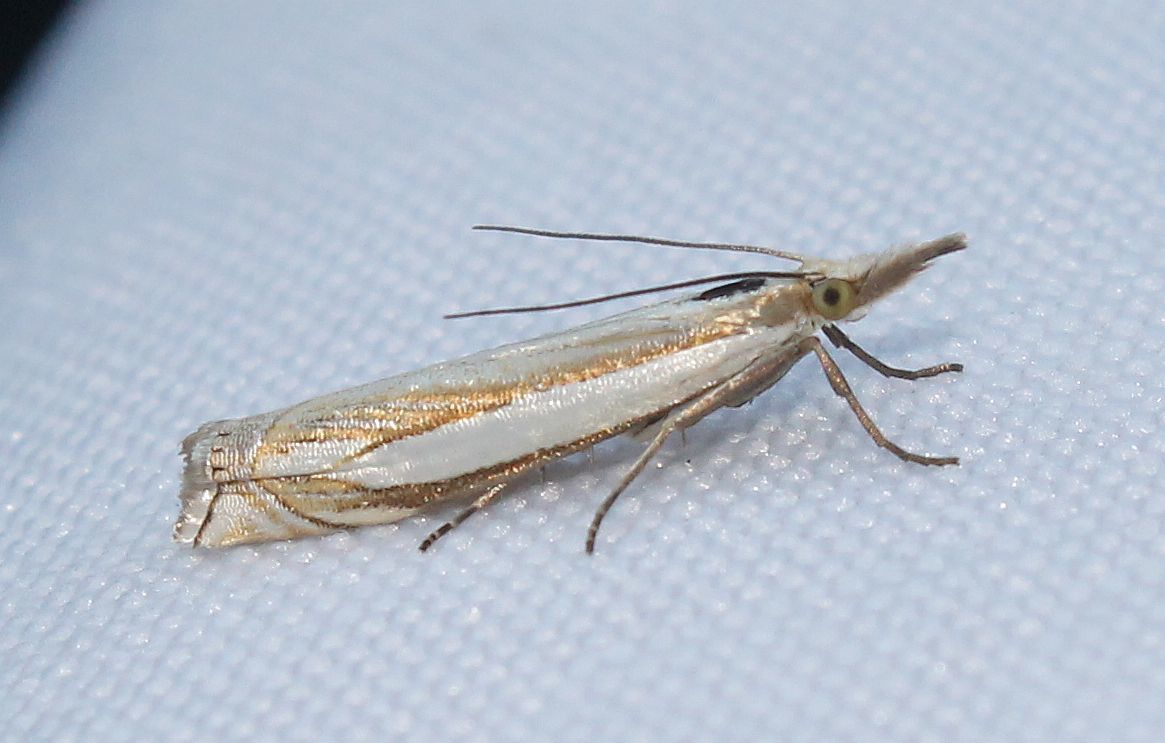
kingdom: Animalia
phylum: Arthropoda
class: Insecta
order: Lepidoptera
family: Crambidae
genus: Crambus
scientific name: Crambus pascuella
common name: Inlaid grass-veneer
